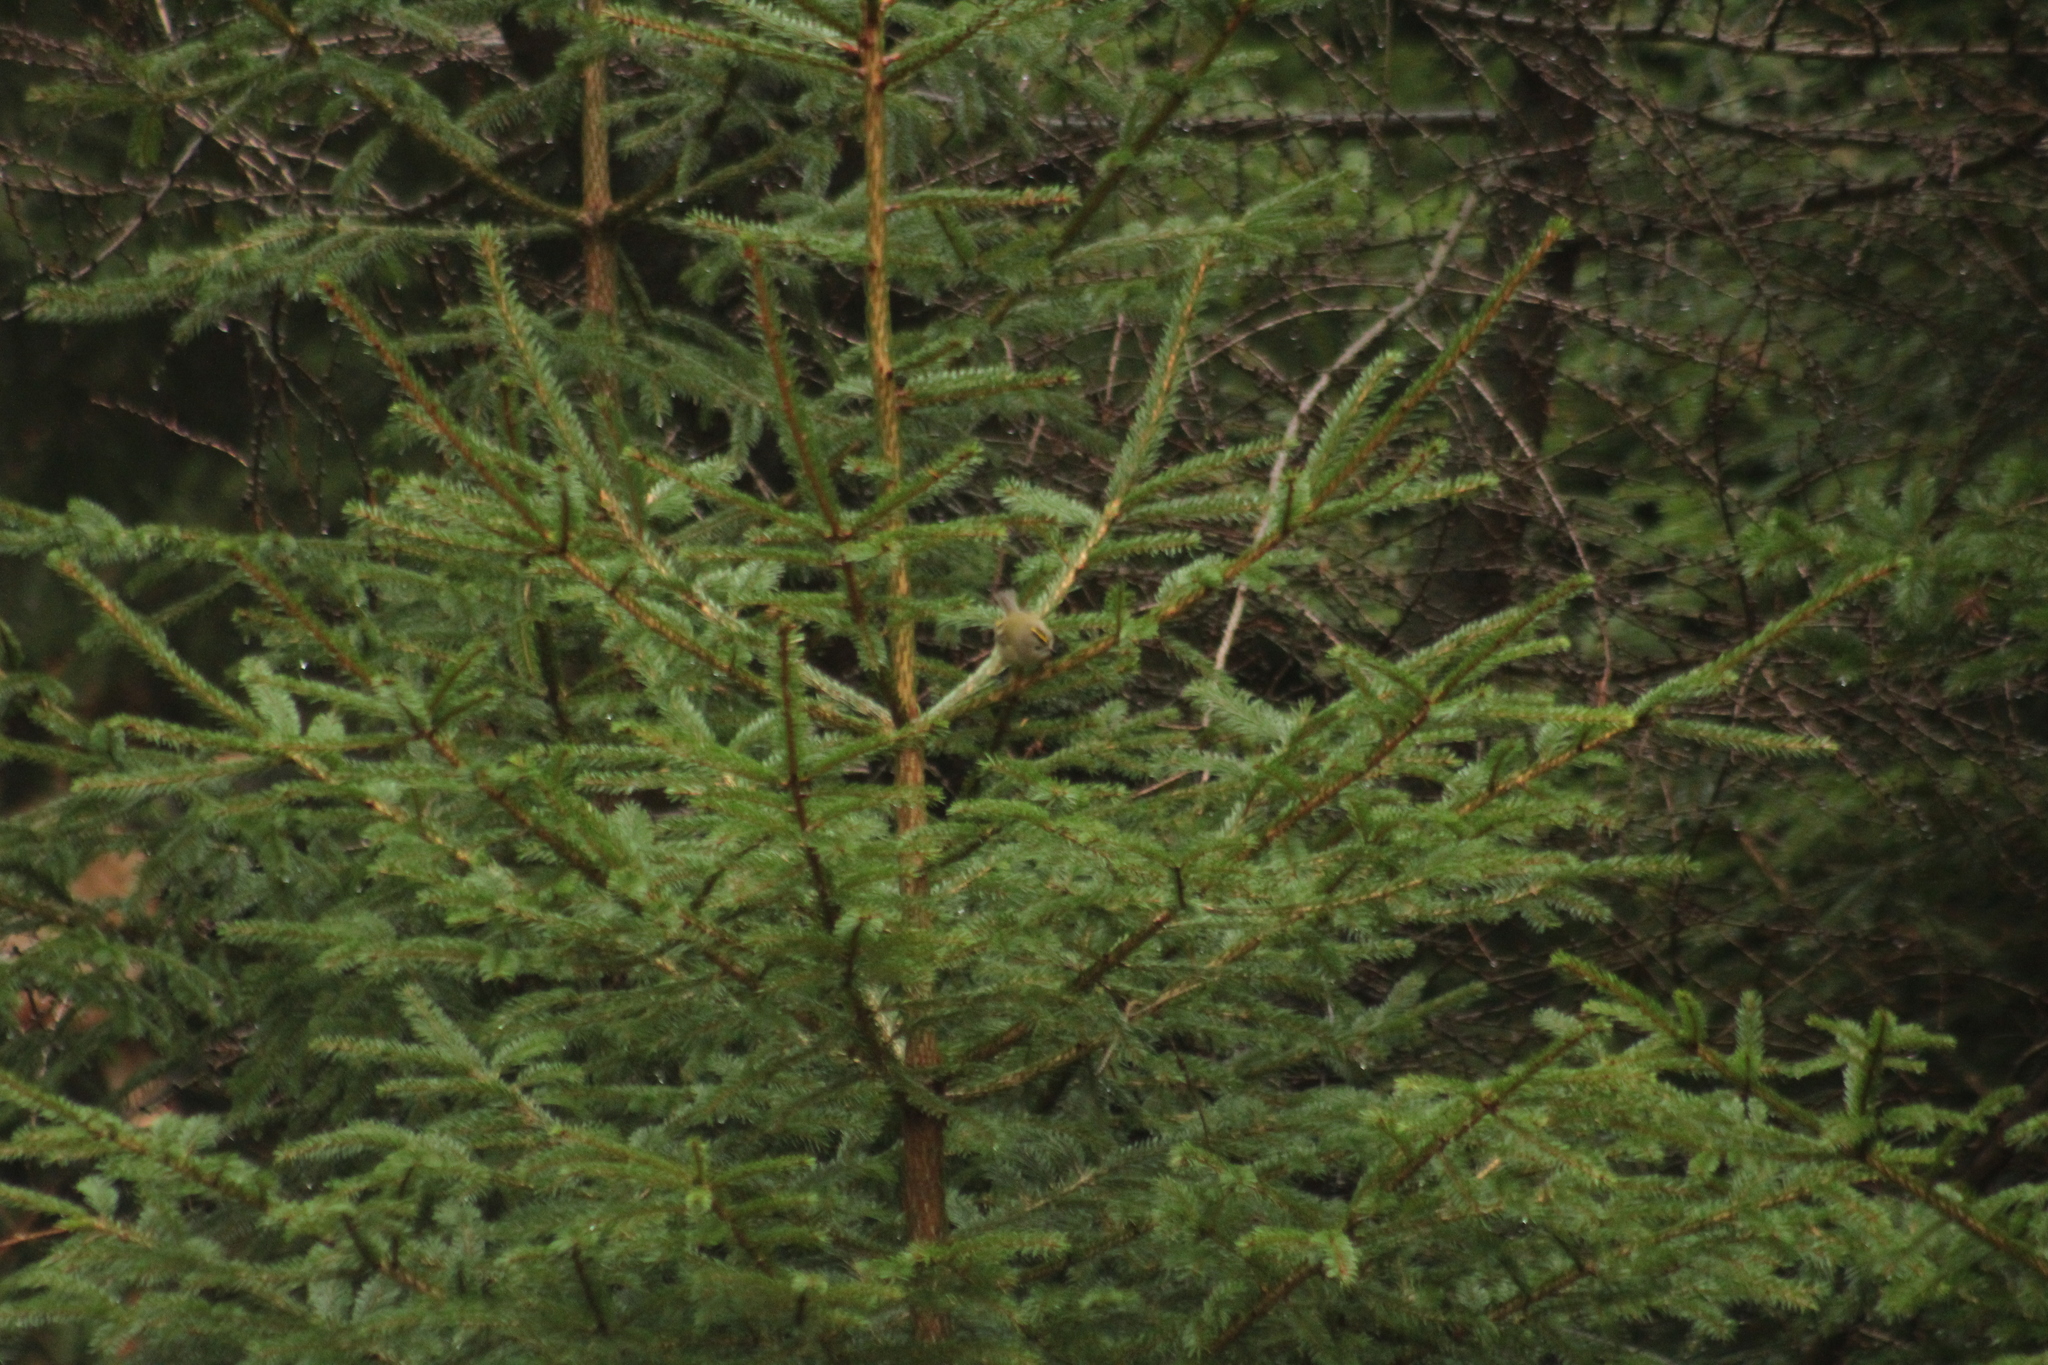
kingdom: Animalia
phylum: Chordata
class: Aves
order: Passeriformes
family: Regulidae
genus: Regulus
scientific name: Regulus regulus
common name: Goldcrest
